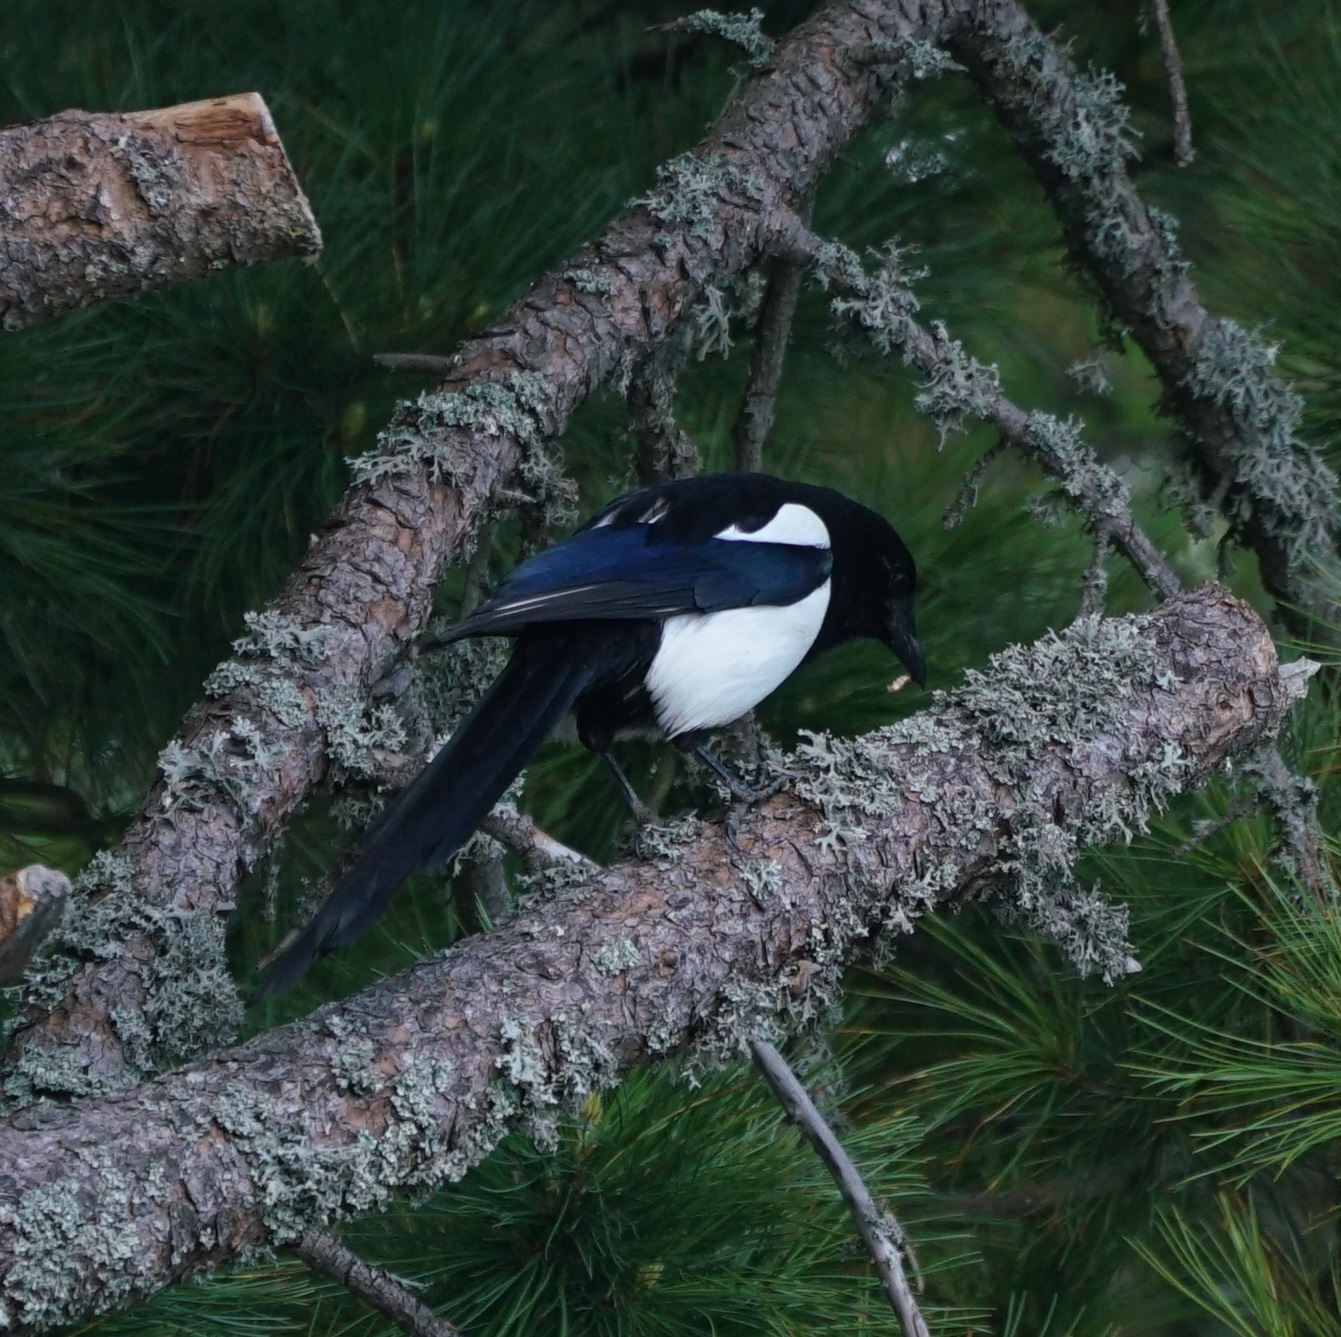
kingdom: Animalia
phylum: Chordata
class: Aves
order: Passeriformes
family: Corvidae
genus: Pica
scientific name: Pica pica
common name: Eurasian magpie
